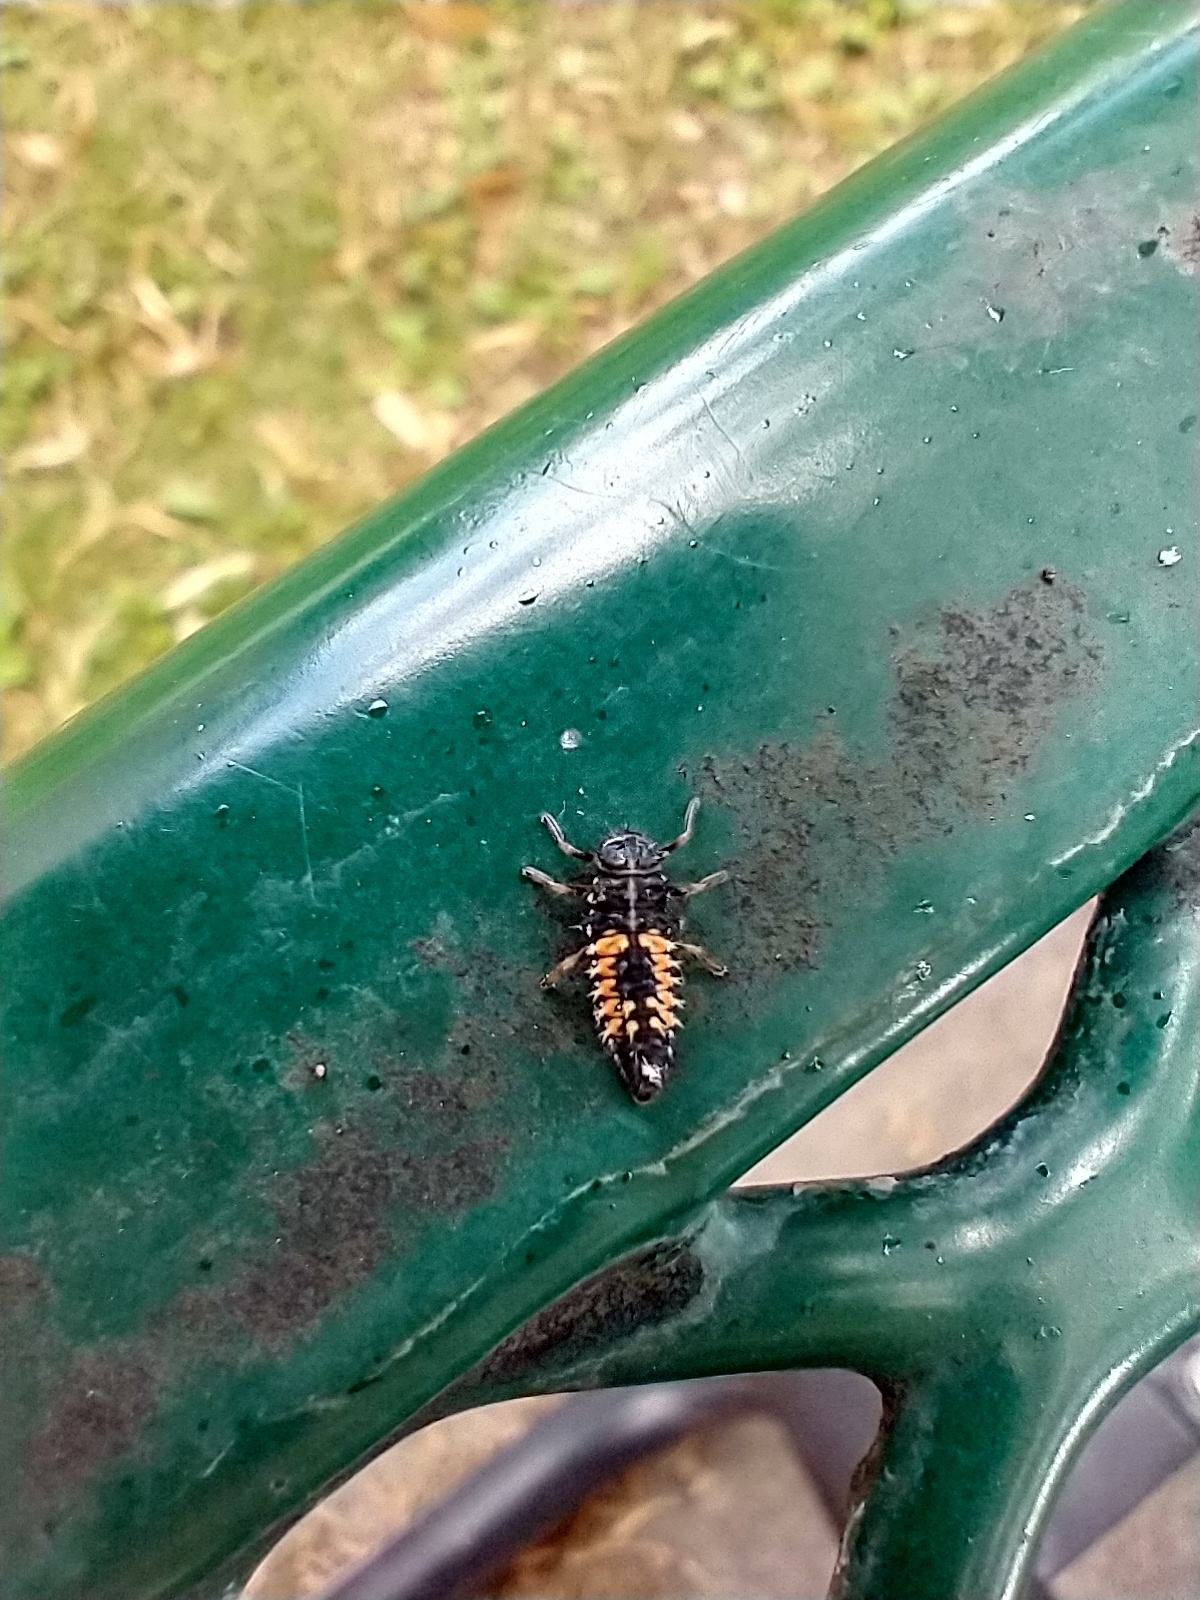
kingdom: Animalia
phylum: Arthropoda
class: Insecta
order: Coleoptera
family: Coccinellidae
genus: Harmonia
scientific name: Harmonia axyridis
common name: Harlequin ladybird
